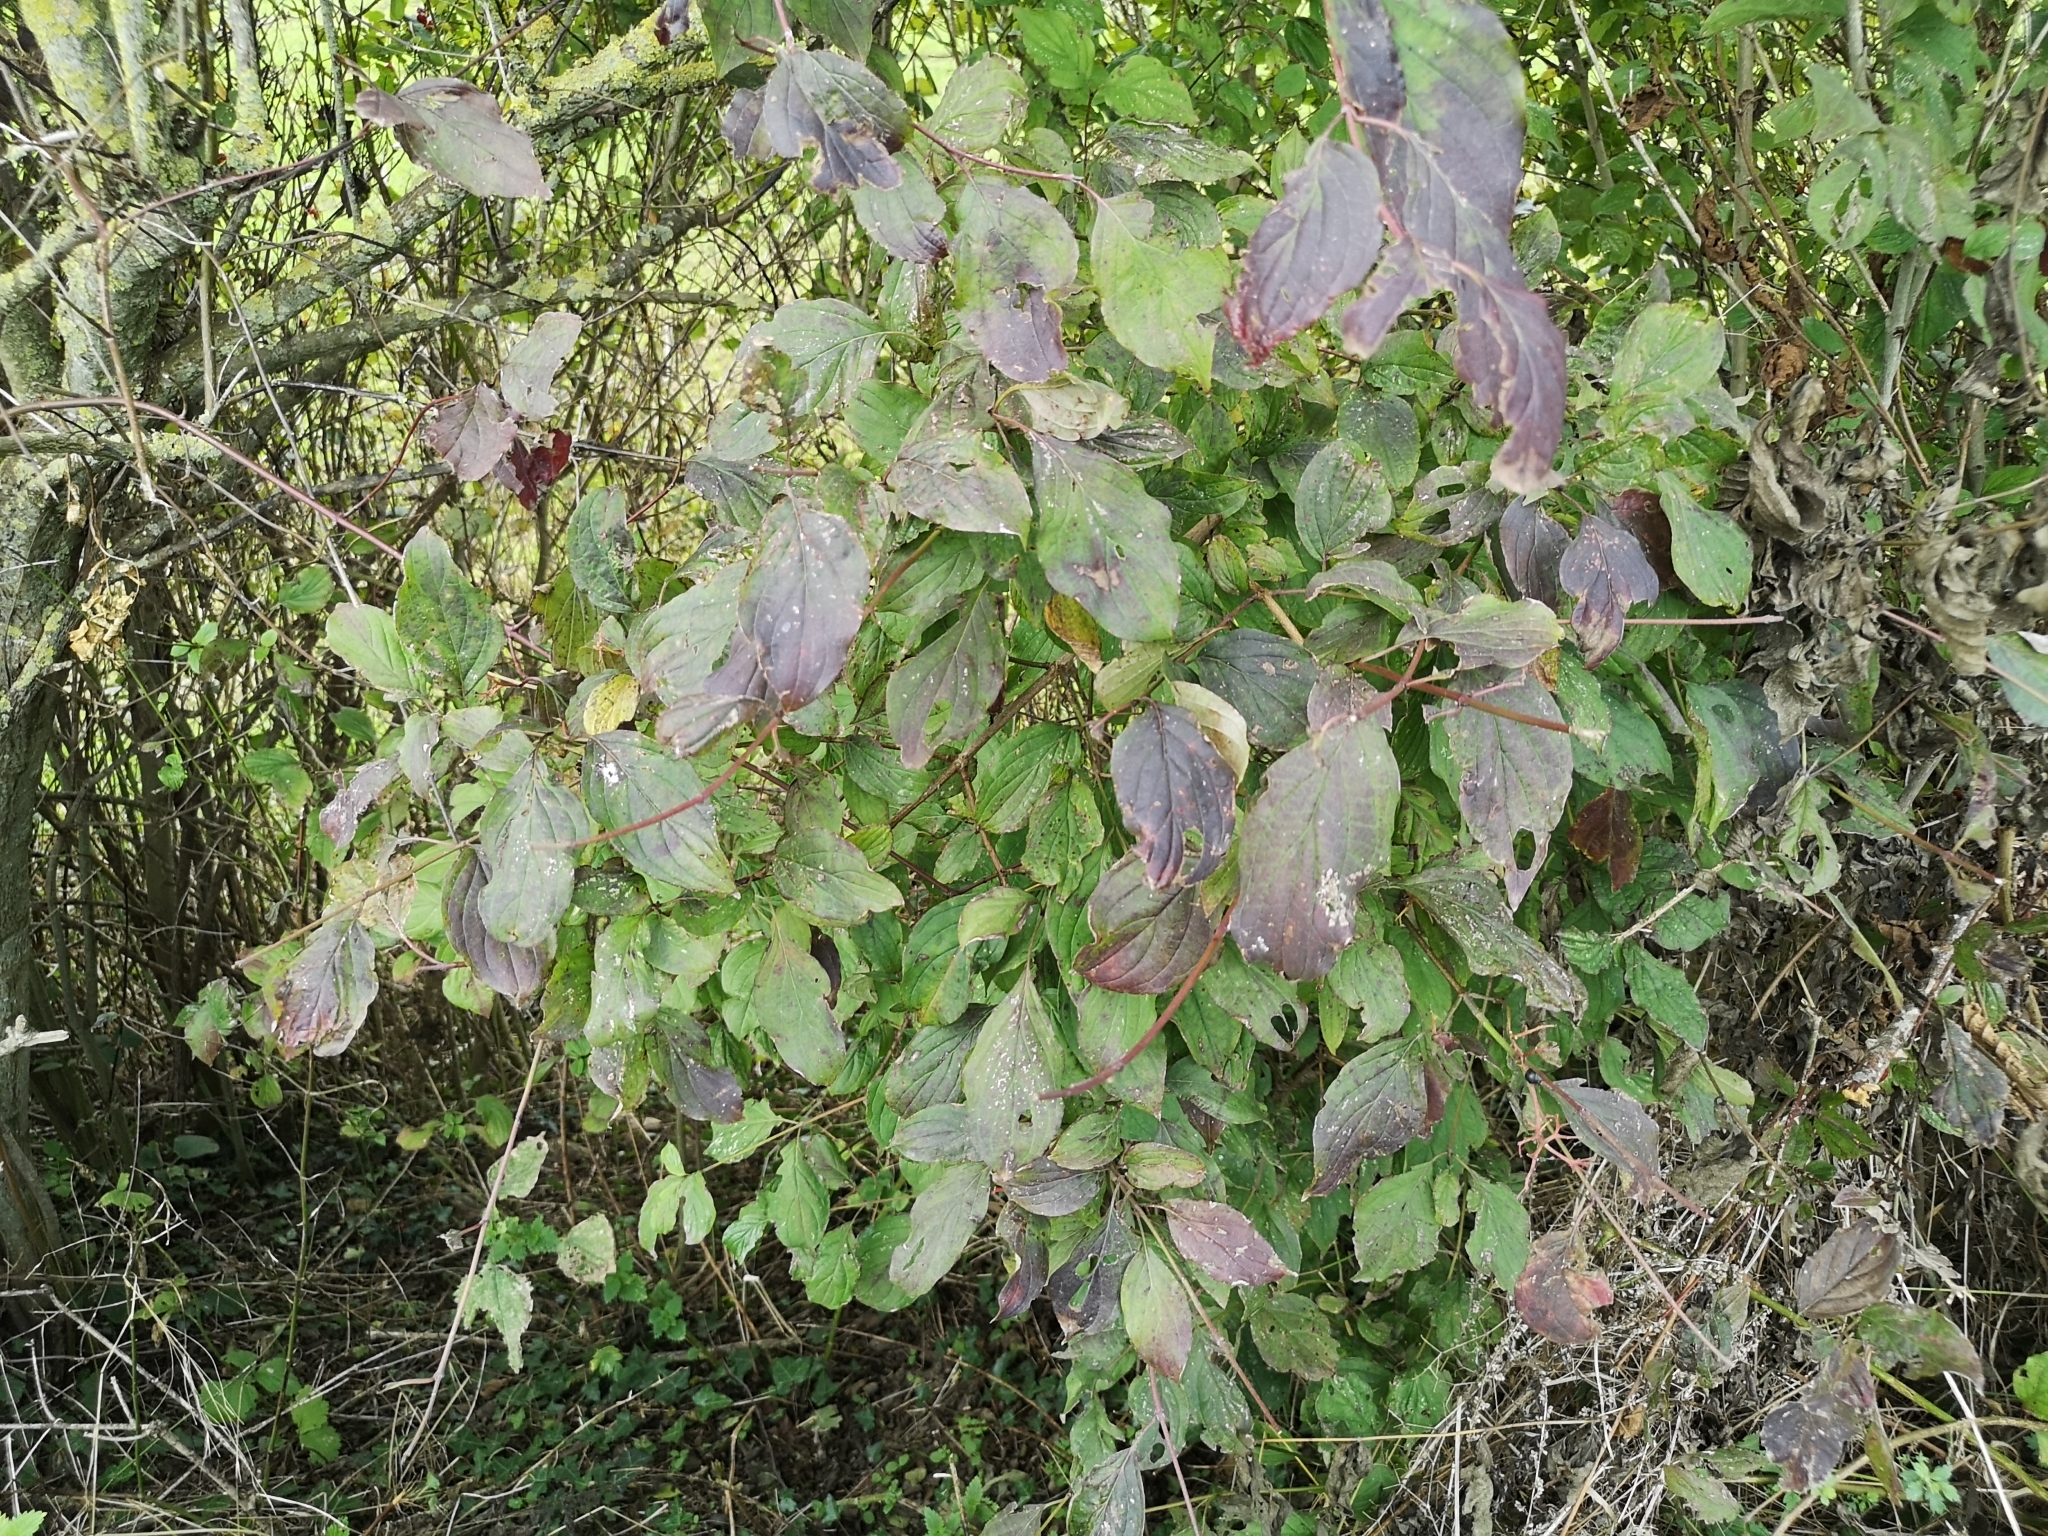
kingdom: Plantae
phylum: Tracheophyta
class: Magnoliopsida
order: Cornales
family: Cornaceae
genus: Cornus
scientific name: Cornus sanguinea
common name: Dogwood
